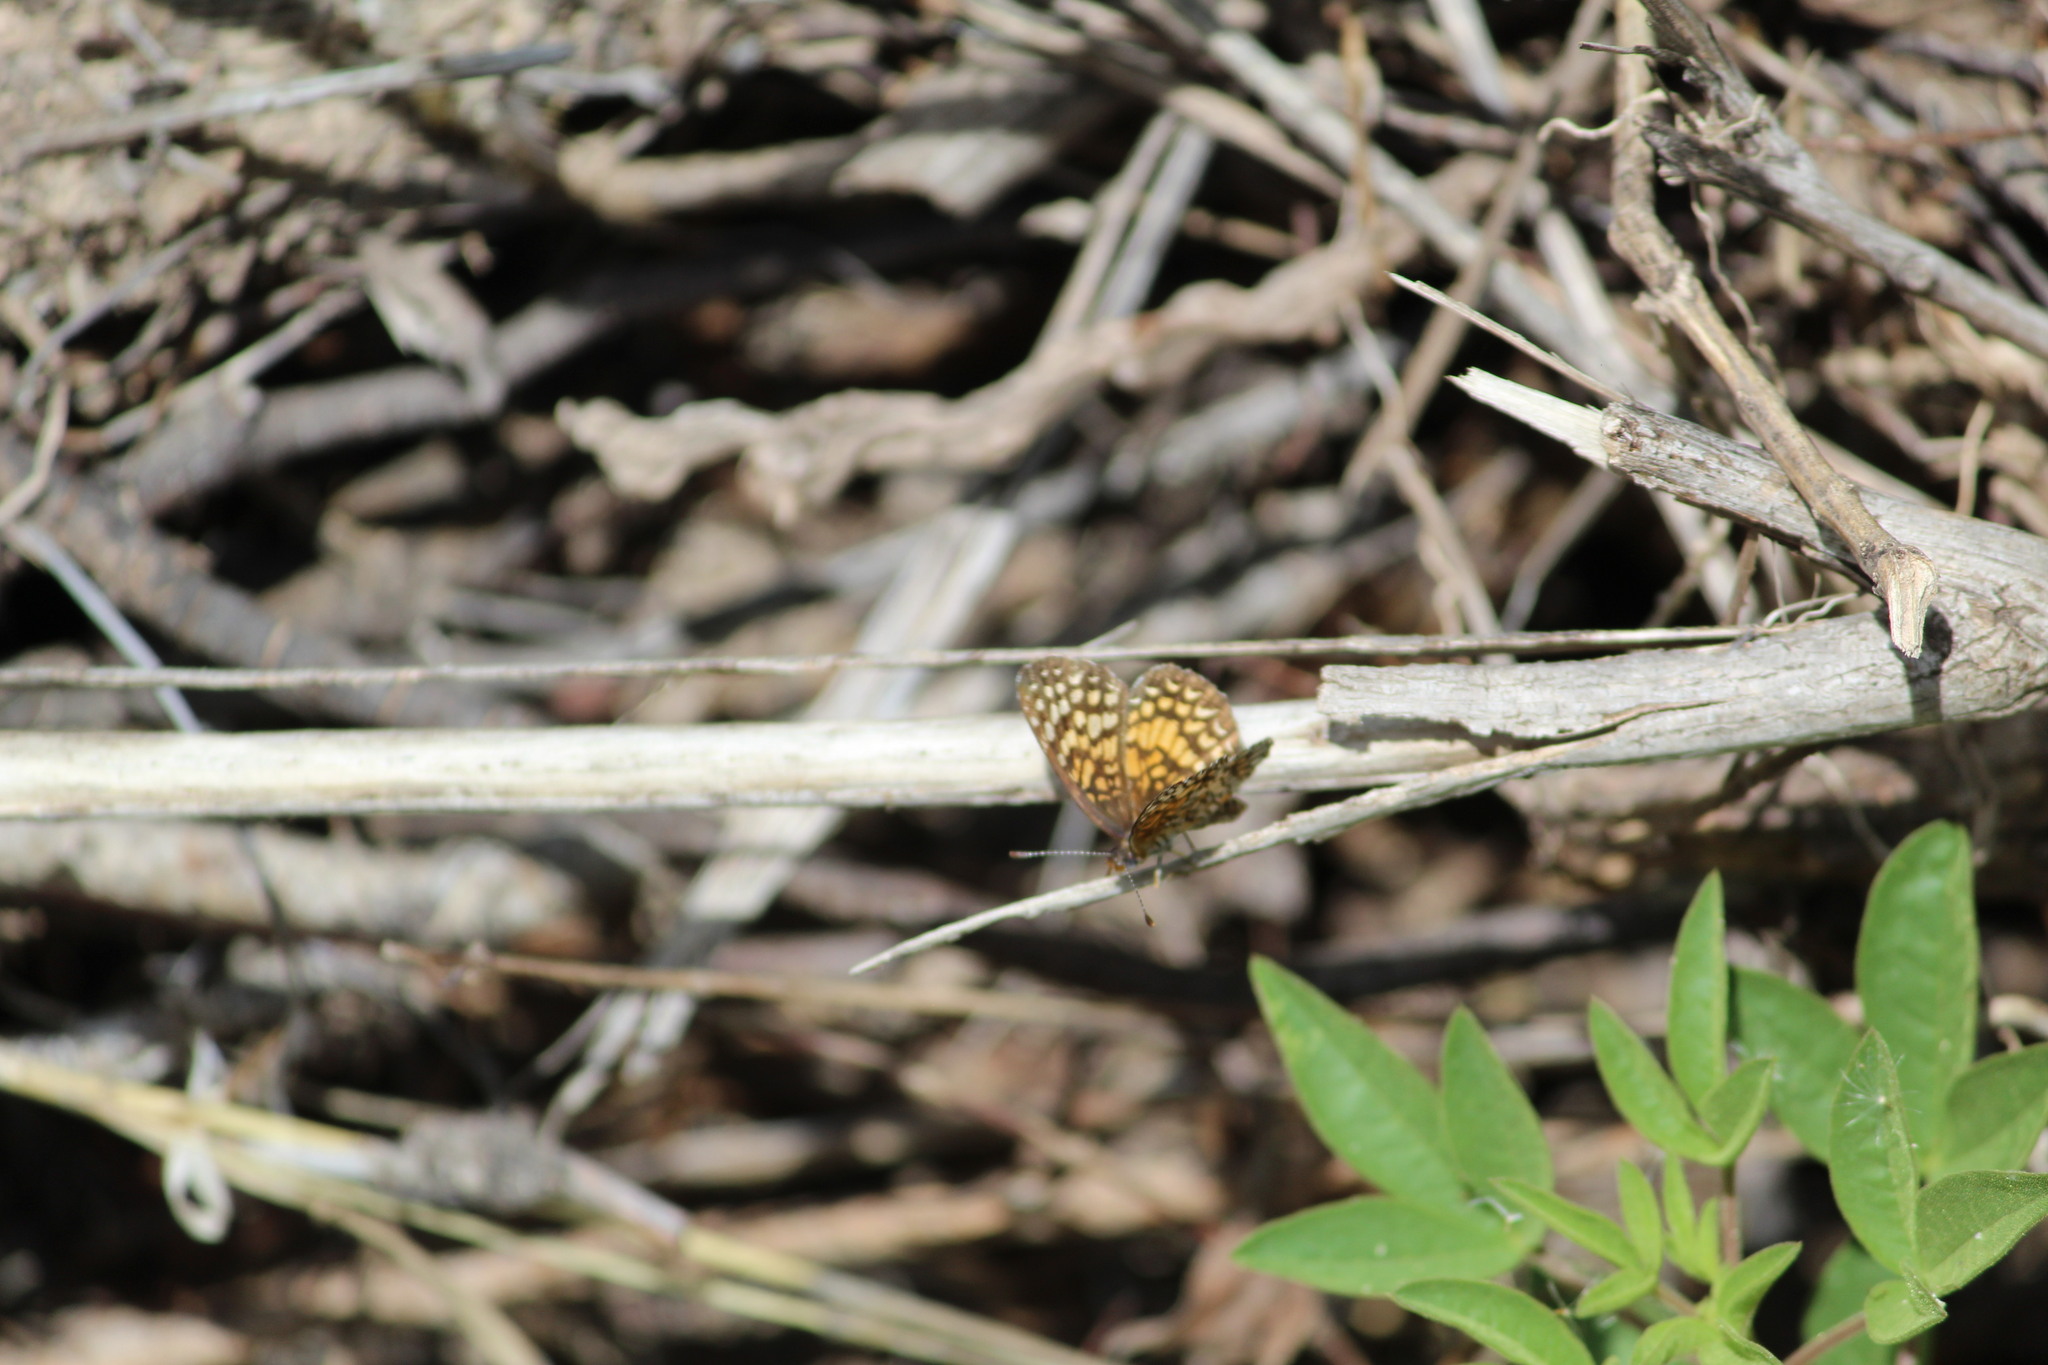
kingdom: Animalia
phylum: Arthropoda
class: Insecta
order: Lepidoptera
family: Nymphalidae
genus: Texola
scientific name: Texola elada
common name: Elada checkerspot
